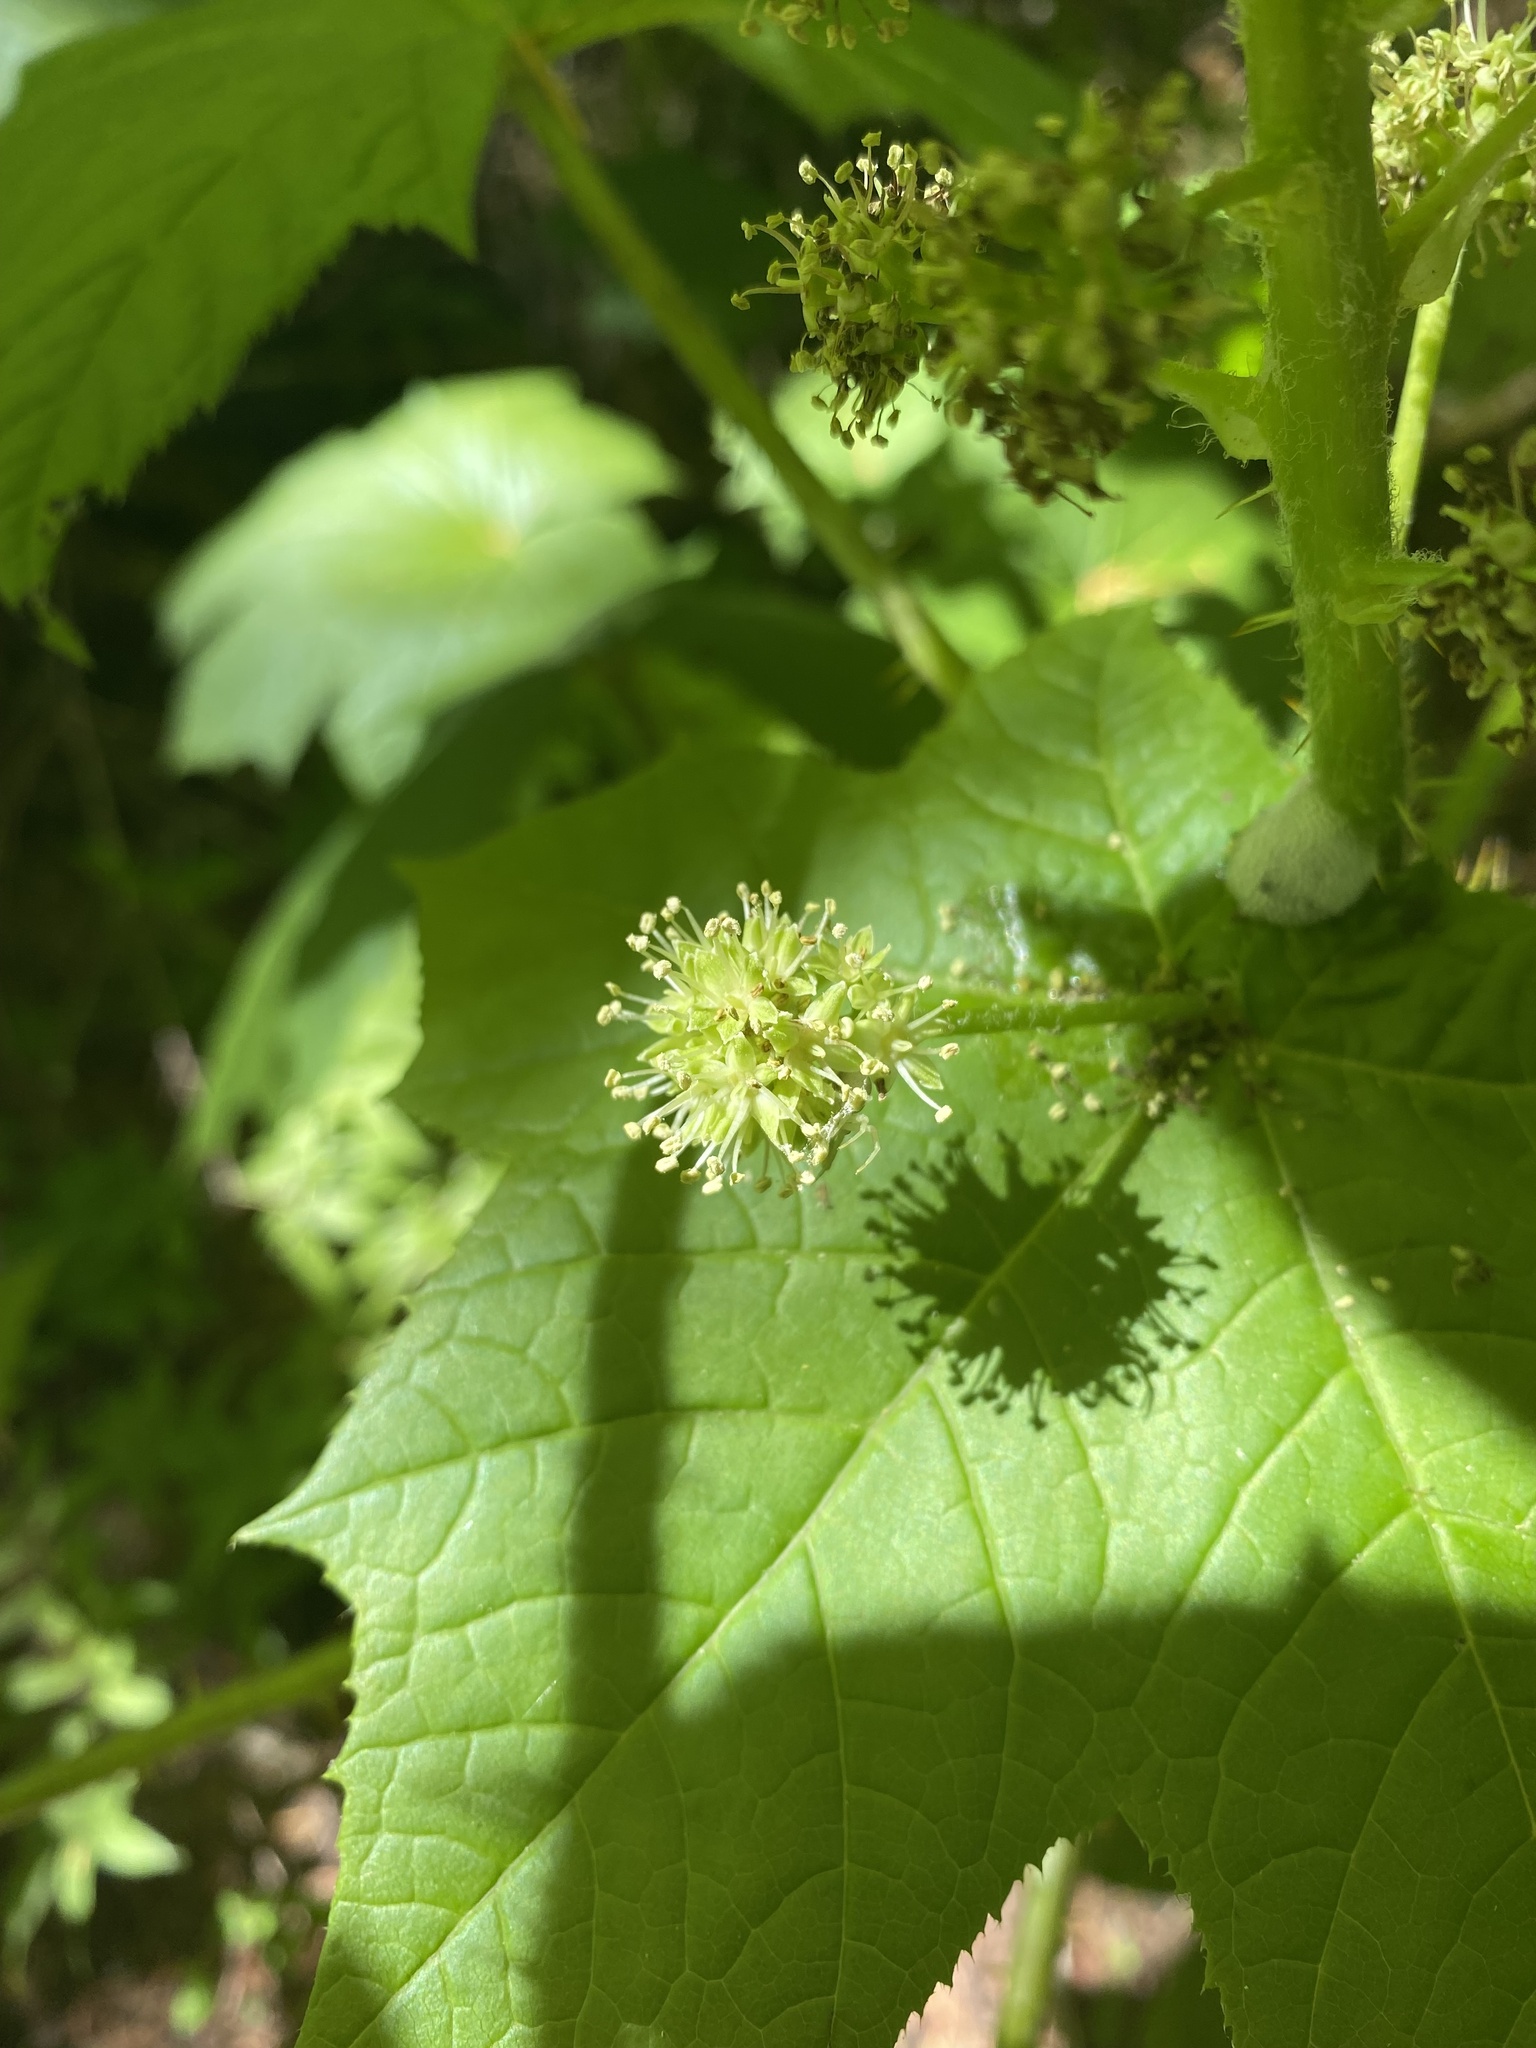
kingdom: Plantae
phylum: Tracheophyta
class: Magnoliopsida
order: Apiales
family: Araliaceae
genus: Oplopanax
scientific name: Oplopanax horridus
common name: Devil's walking-stick
